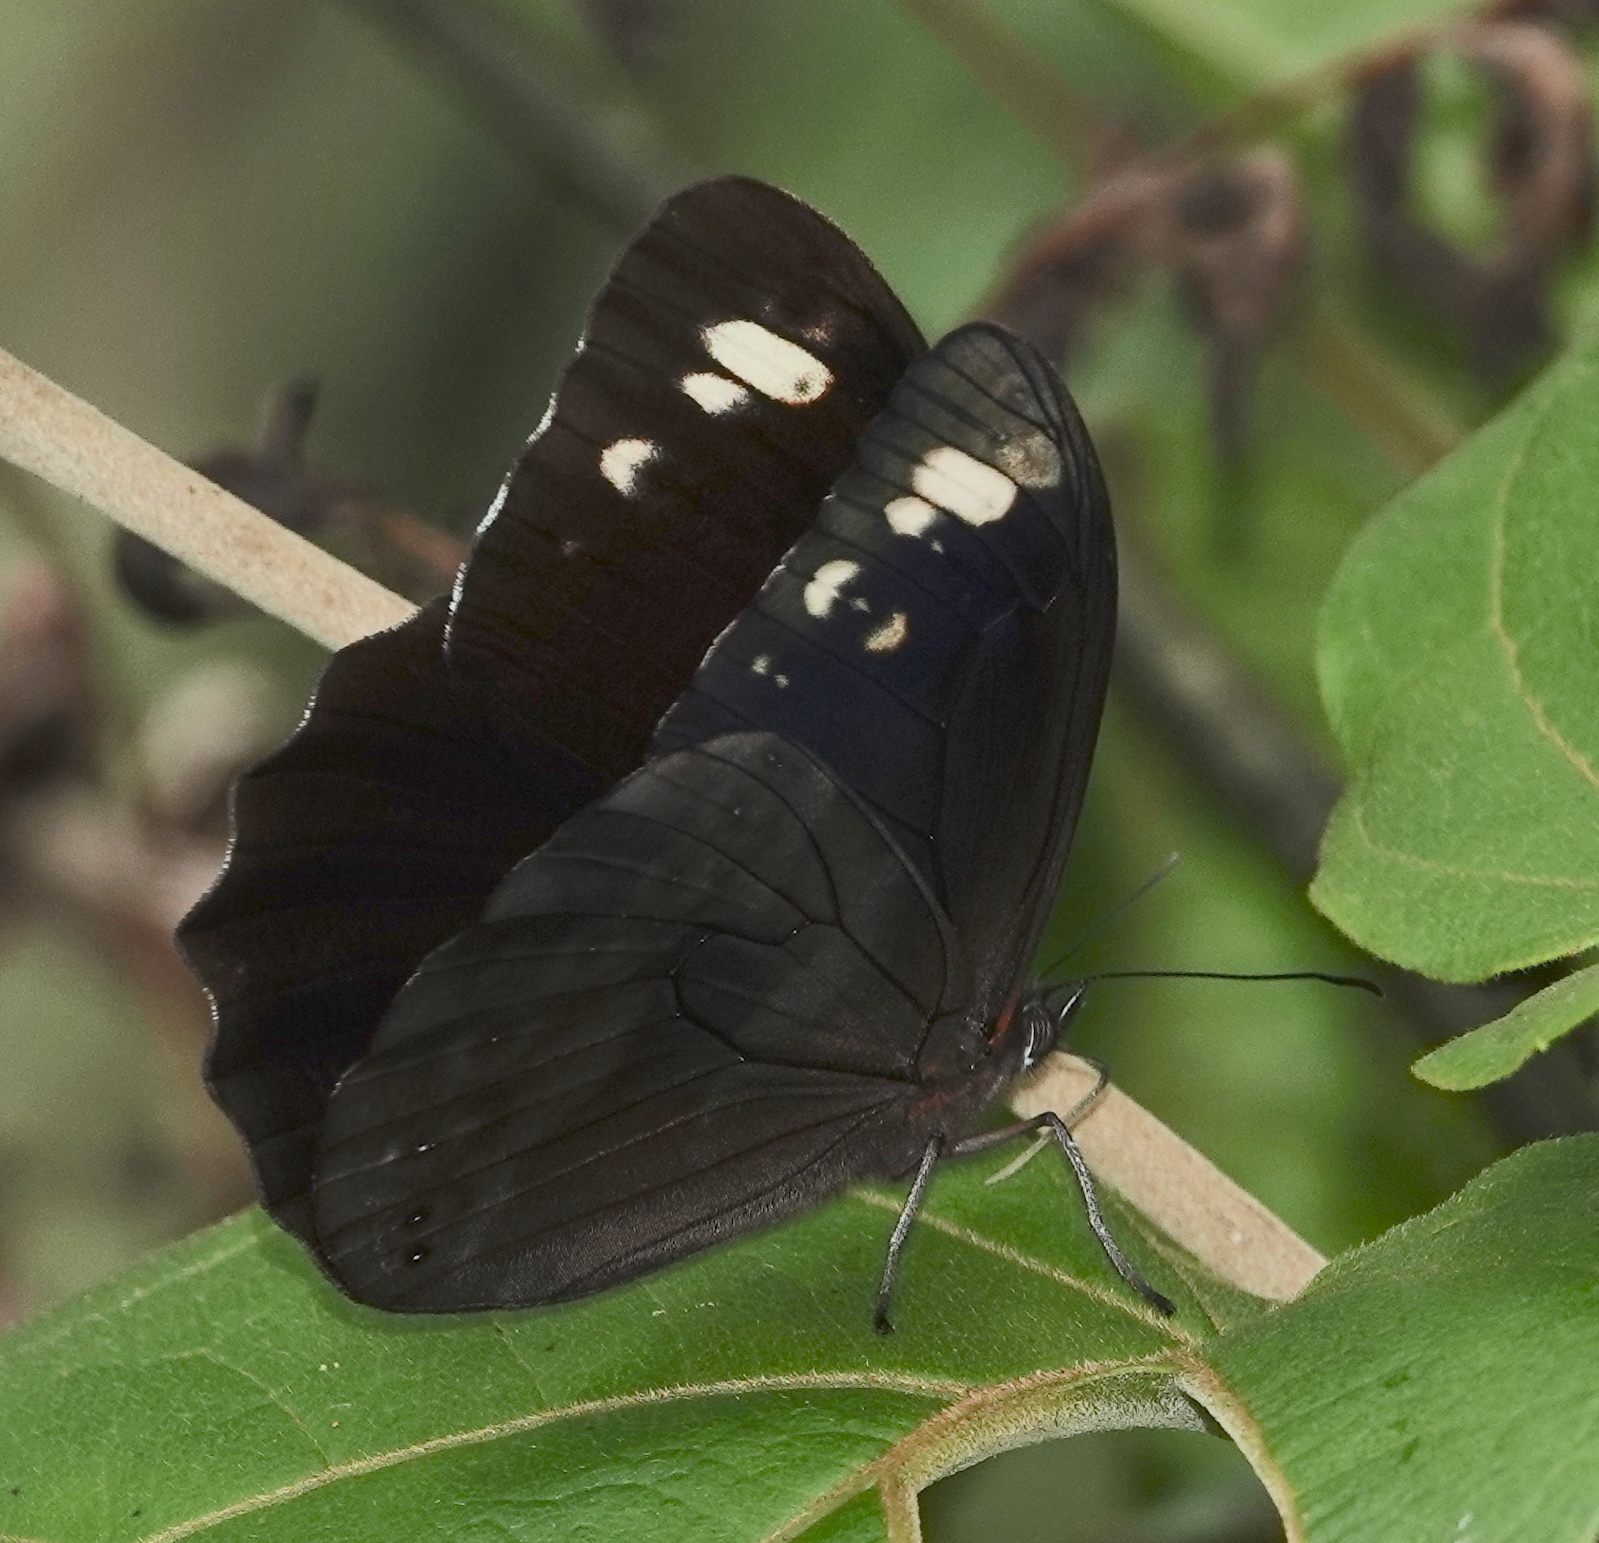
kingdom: Animalia
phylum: Arthropoda
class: Insecta
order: Lepidoptera
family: Nymphalidae
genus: Pronophila
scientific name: Pronophila unifasciata
